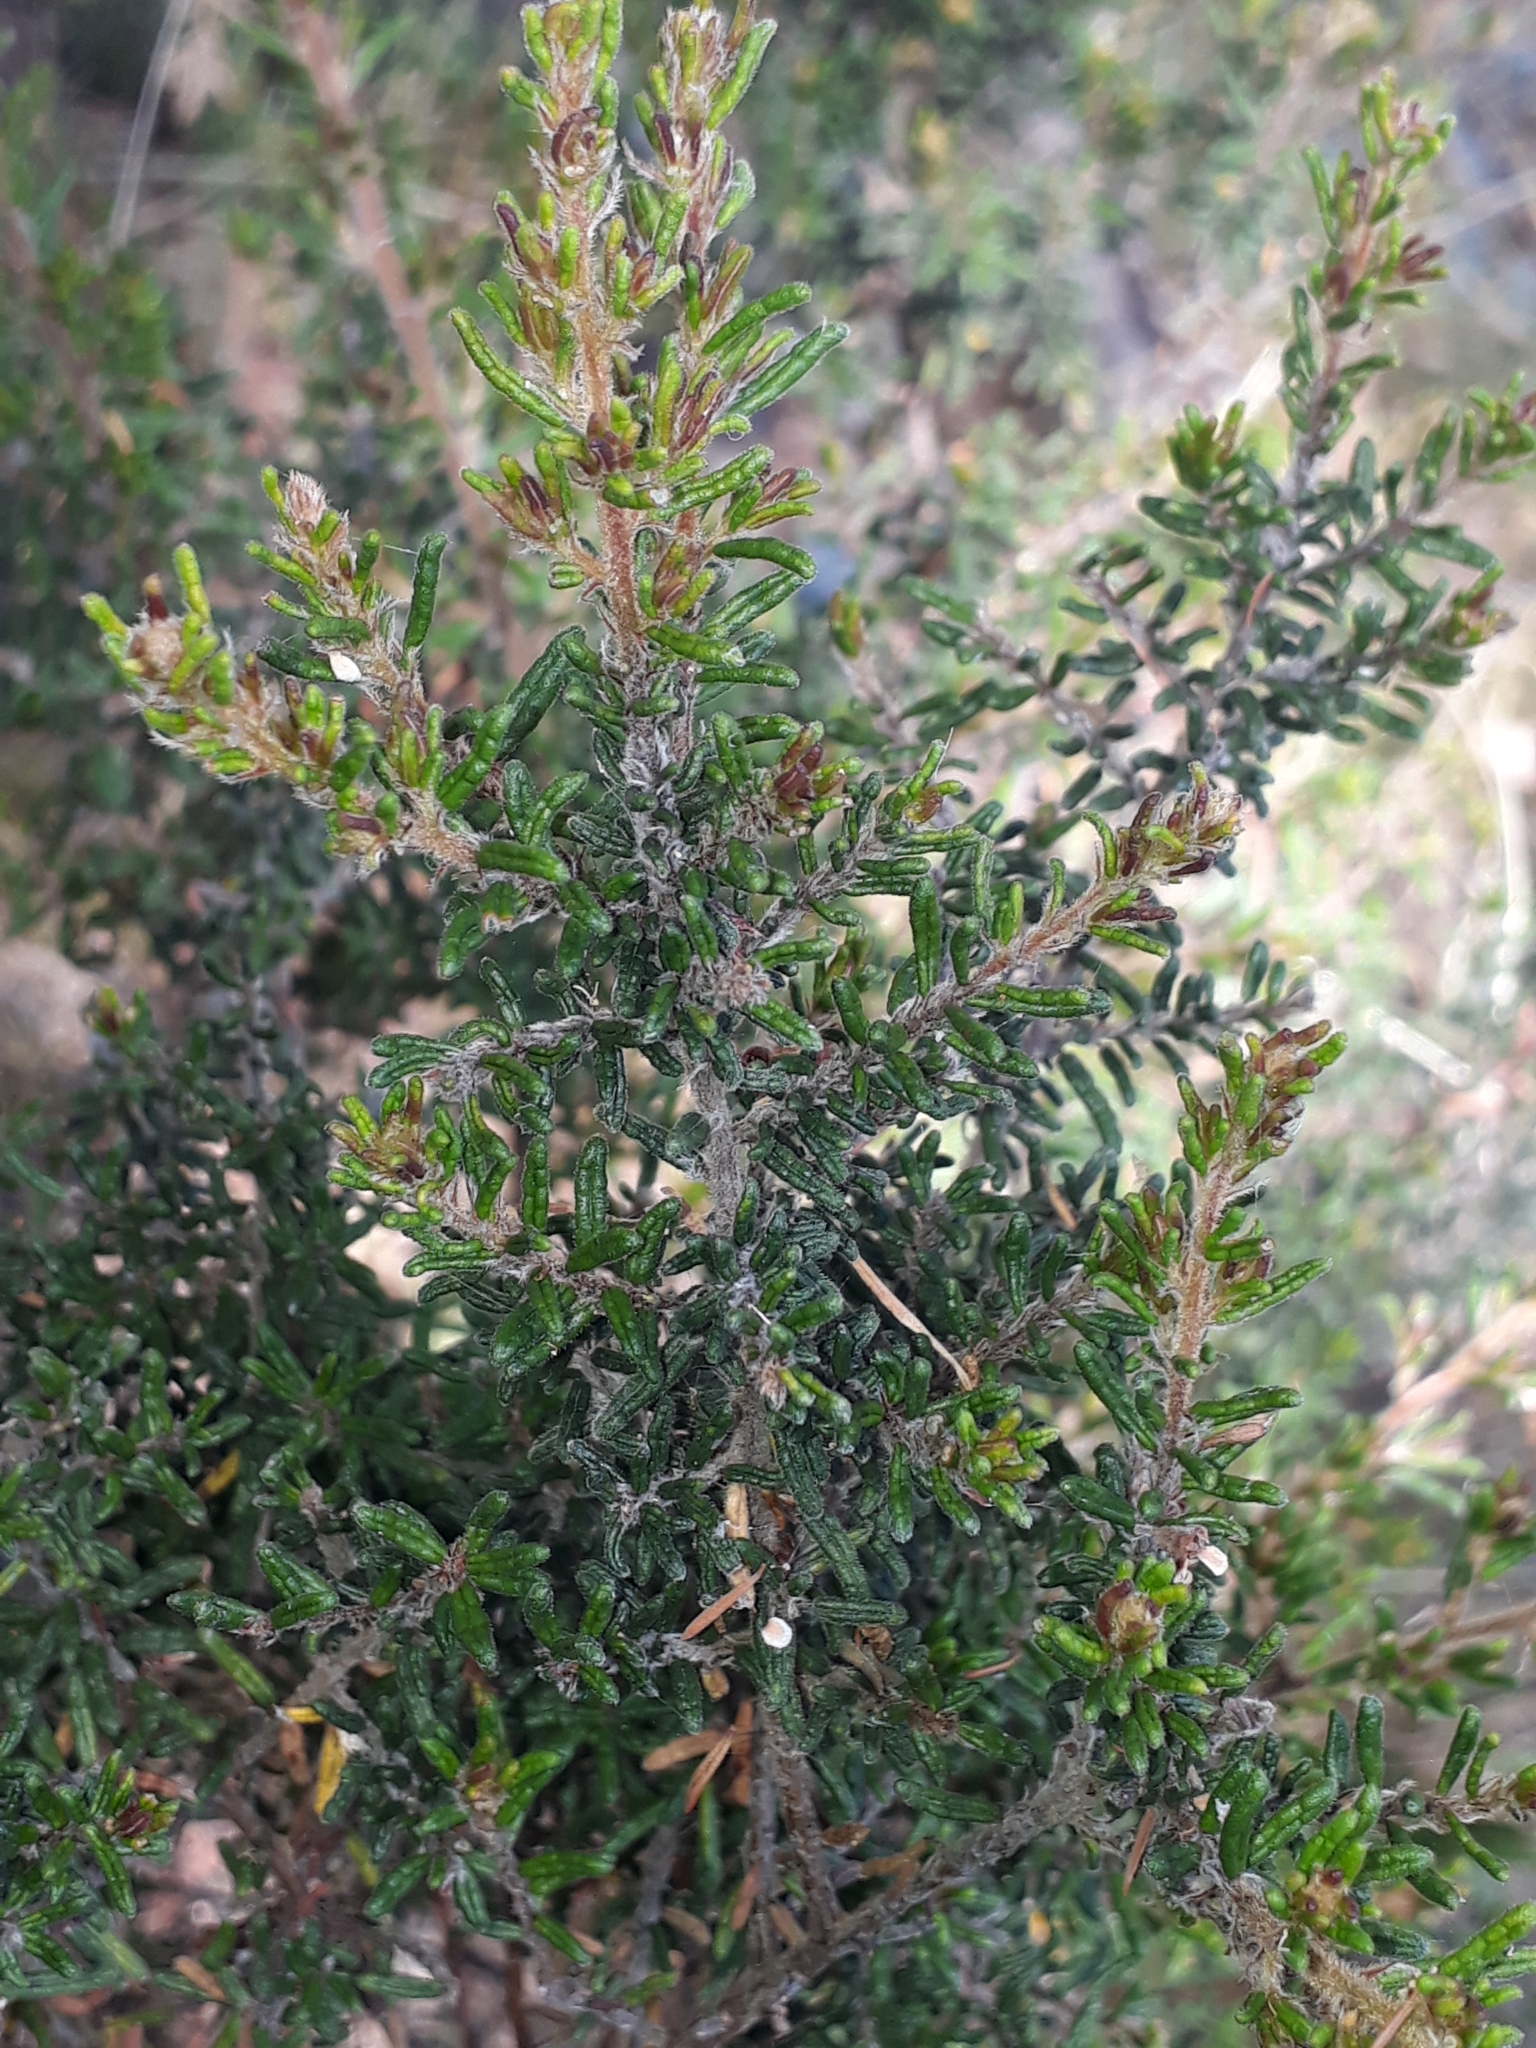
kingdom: Plantae
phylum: Tracheophyta
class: Magnoliopsida
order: Rosales
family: Rhamnaceae
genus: Pomaderris
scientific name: Pomaderris amoena
